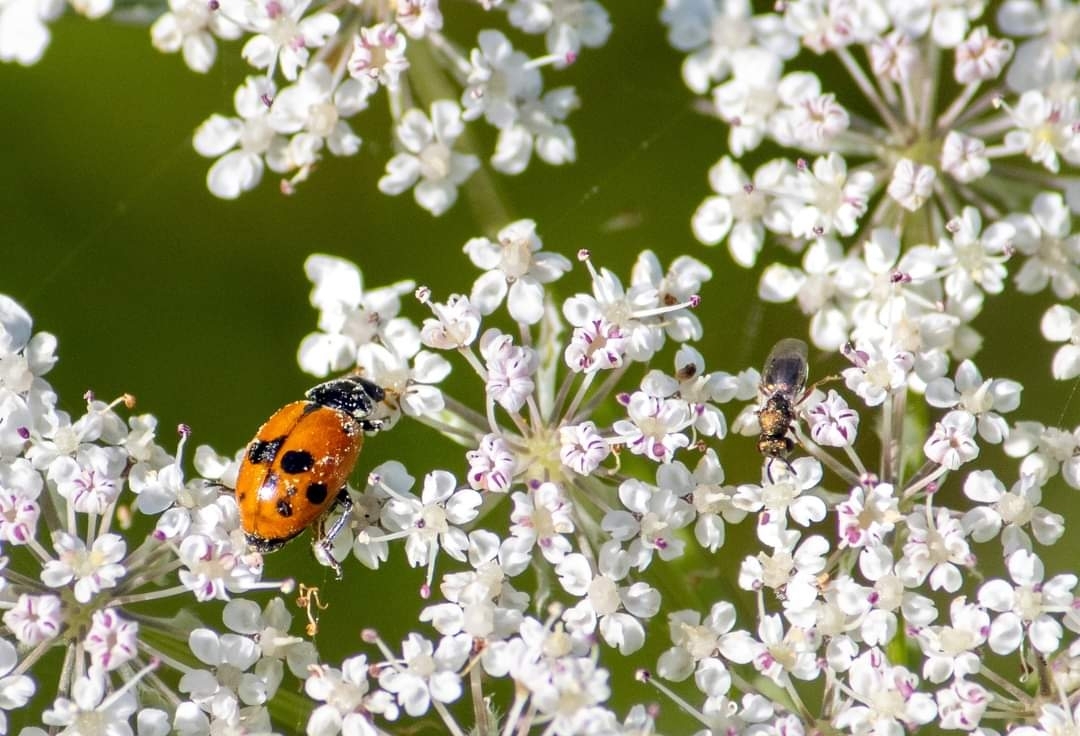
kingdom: Animalia
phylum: Arthropoda
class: Insecta
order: Coleoptera
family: Coccinellidae
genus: Hippodamia
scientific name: Hippodamia variegata
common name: Ladybird beetle
